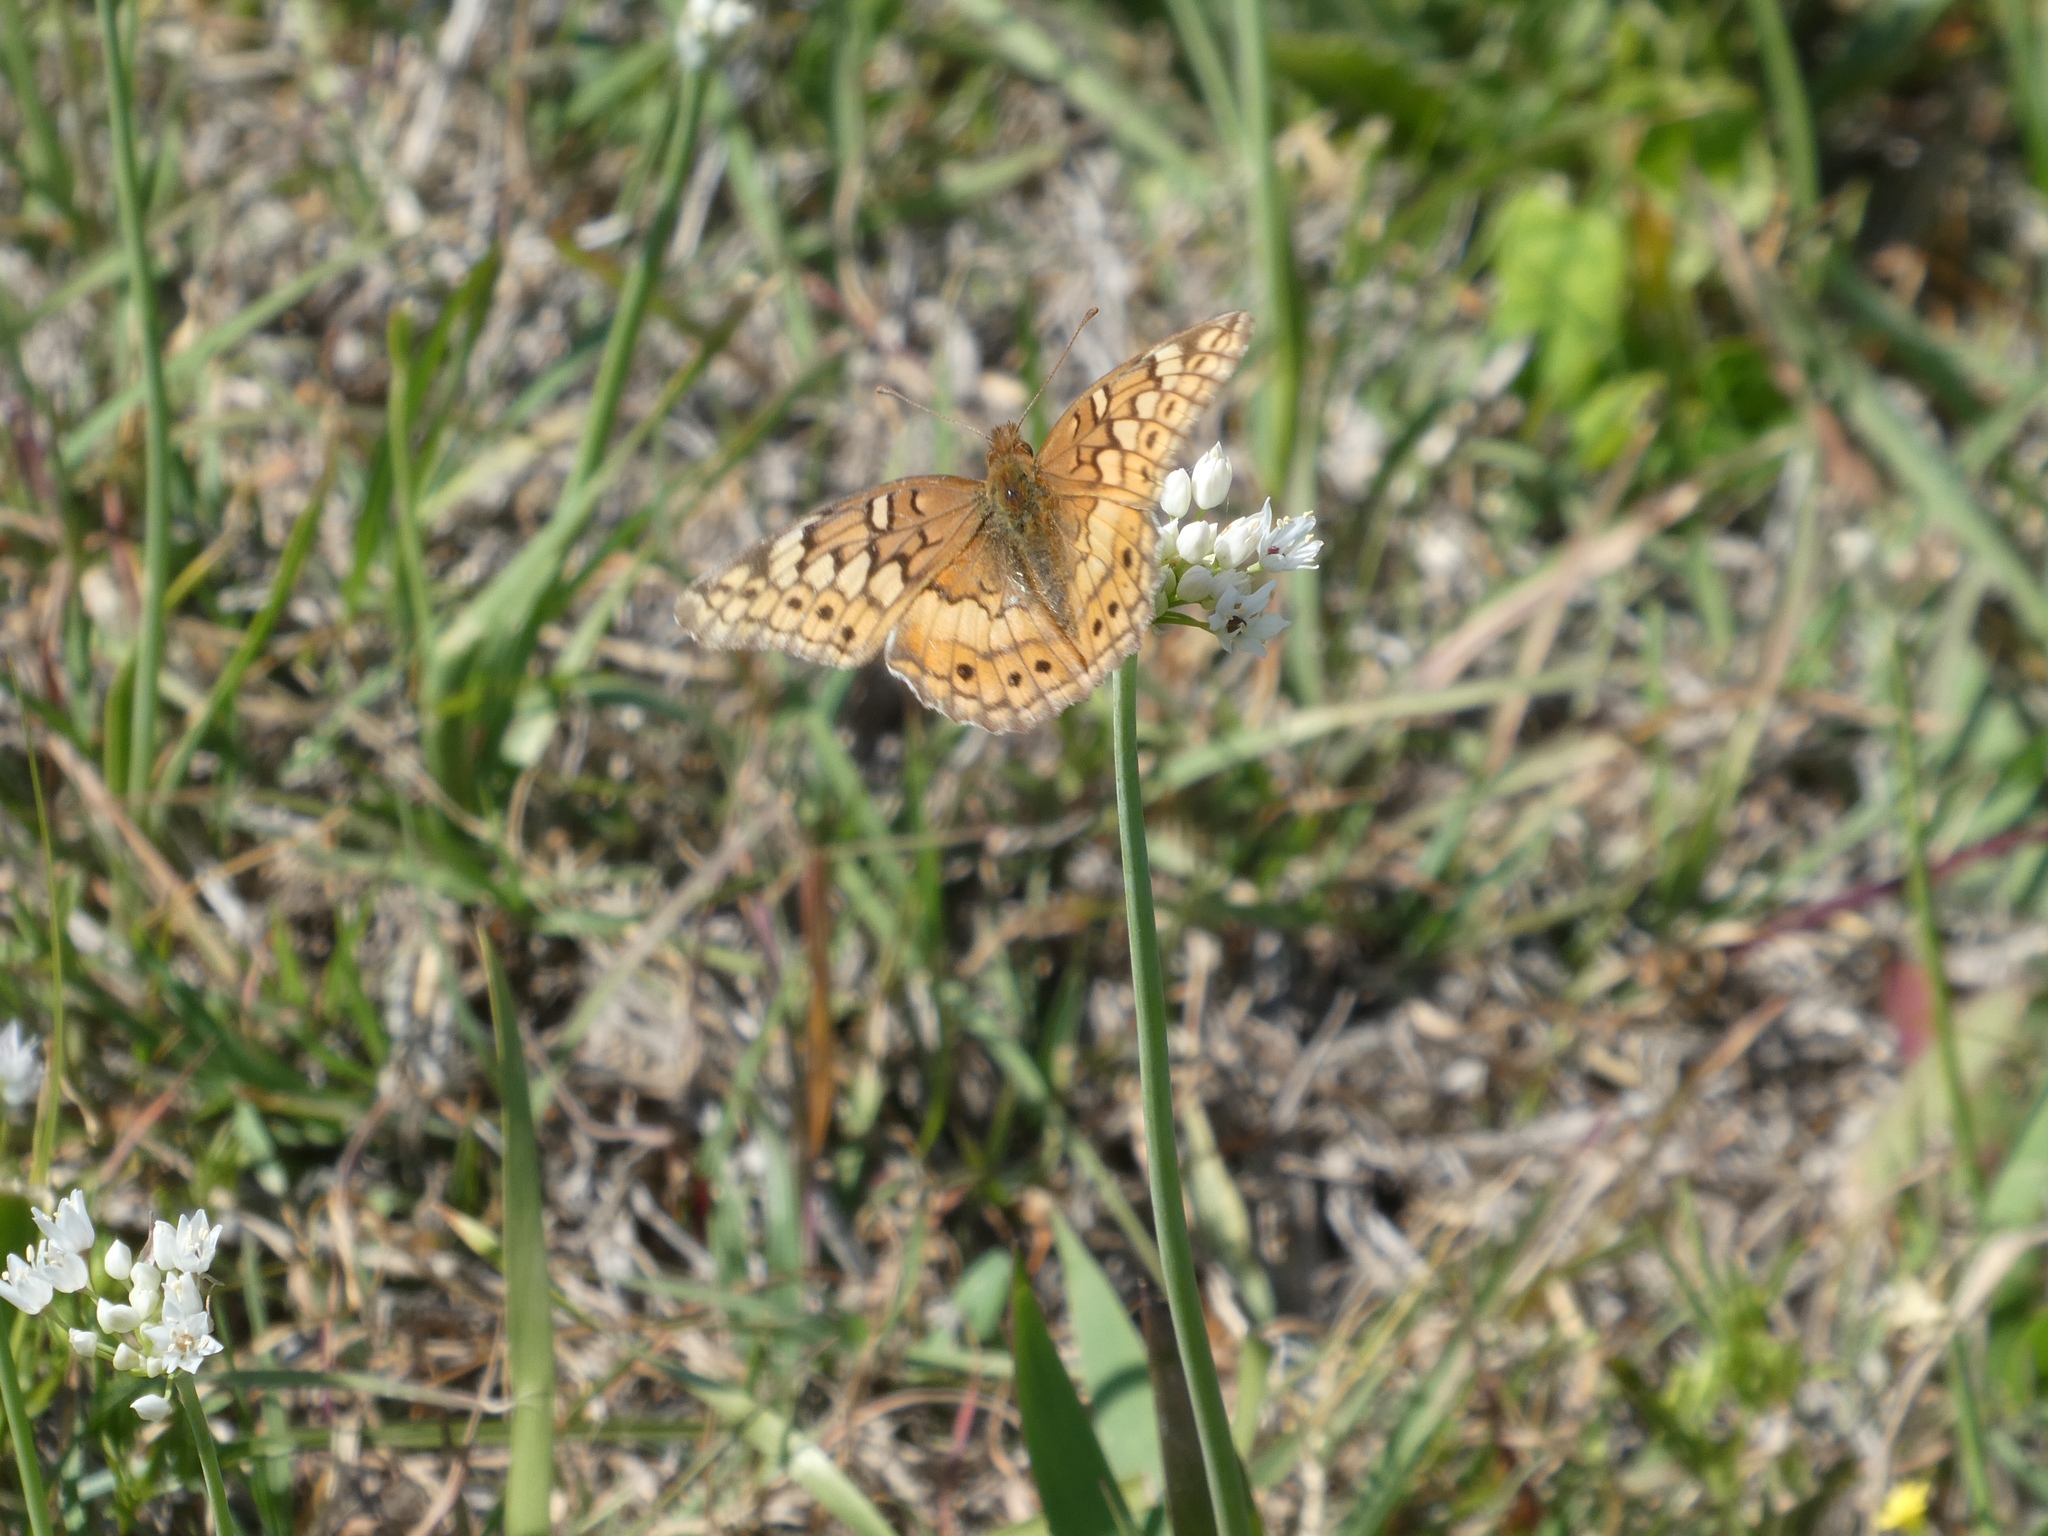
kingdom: Animalia
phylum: Arthropoda
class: Insecta
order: Lepidoptera
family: Nymphalidae
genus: Euptoieta
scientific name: Euptoieta claudia
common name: Variegated fritillary
